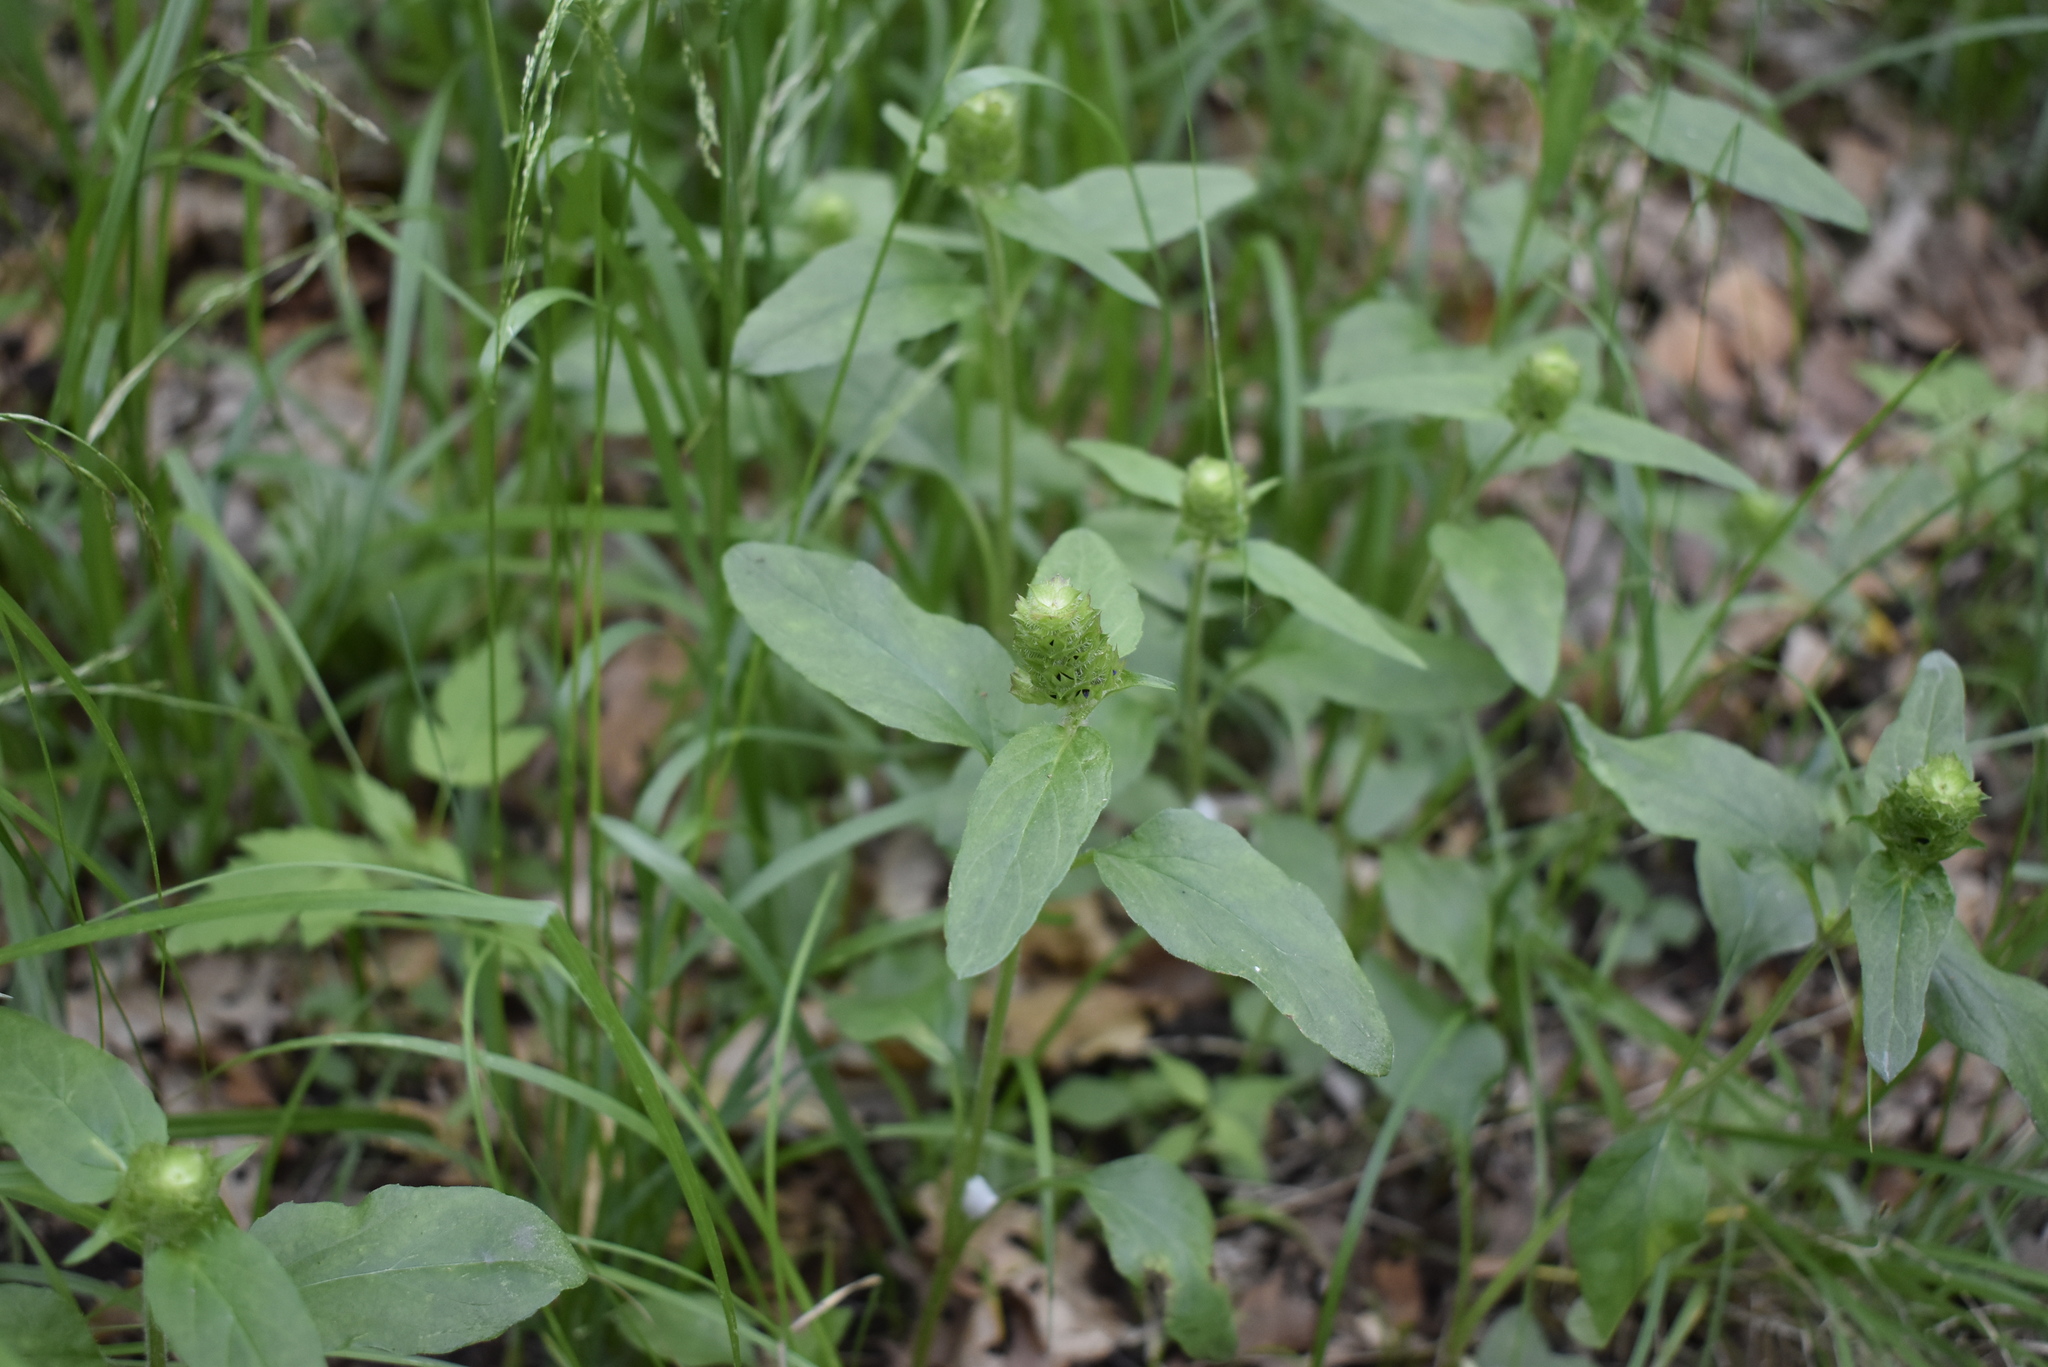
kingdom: Plantae
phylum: Tracheophyta
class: Magnoliopsida
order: Lamiales
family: Lamiaceae
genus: Prunella
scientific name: Prunella vulgaris
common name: Heal-all
